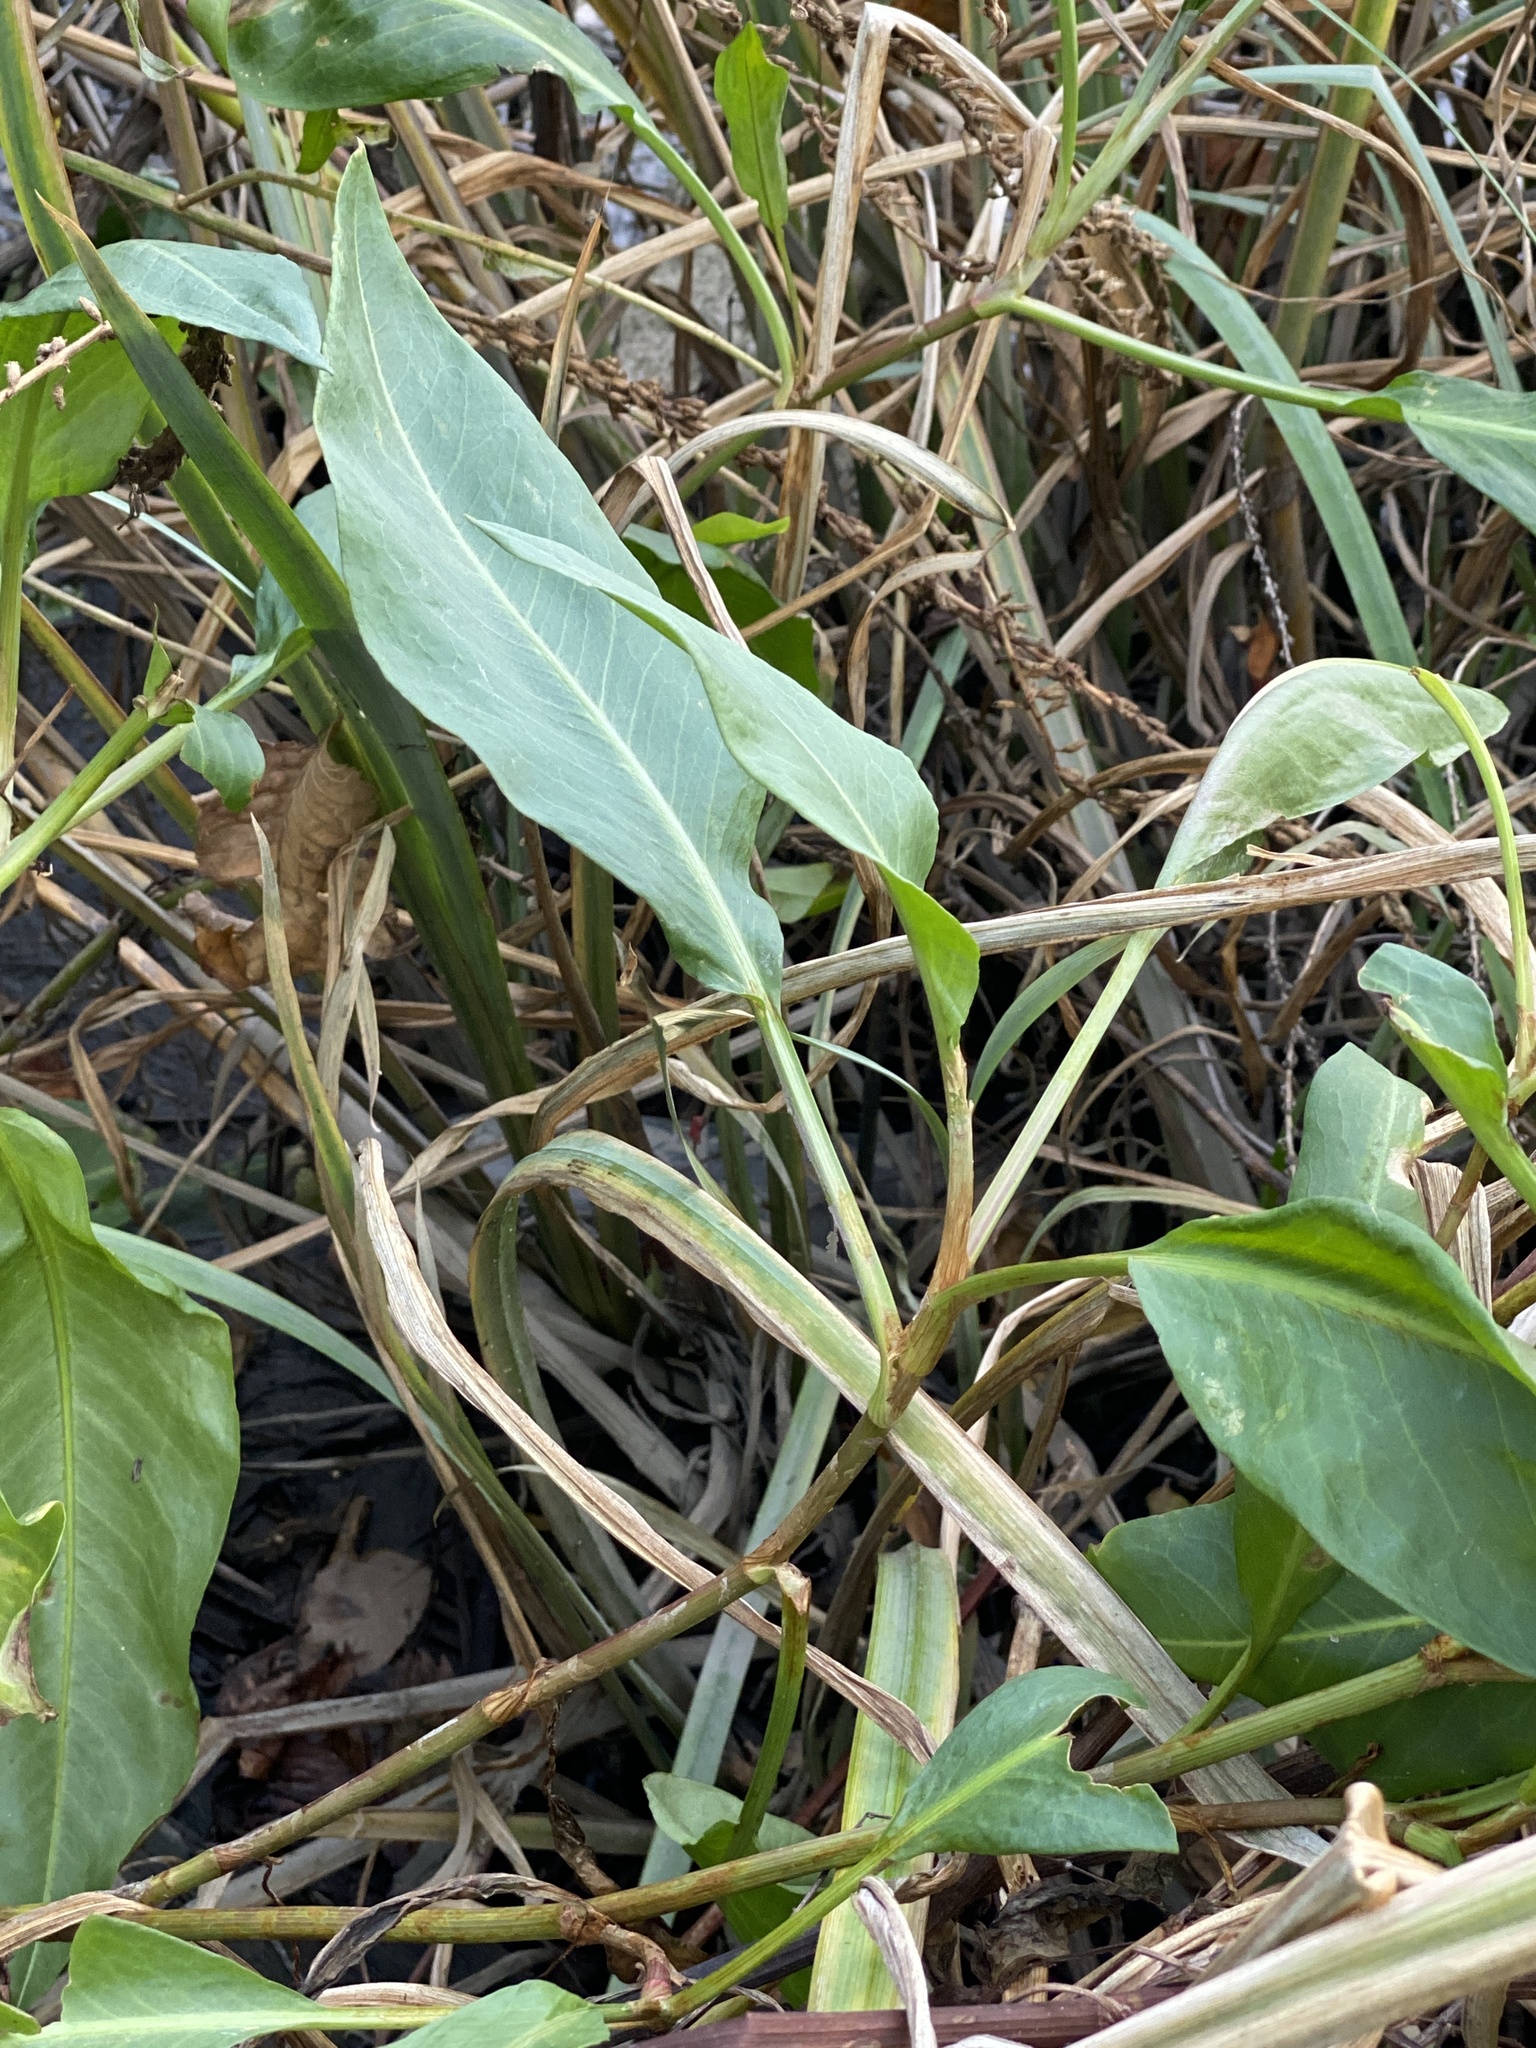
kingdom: Plantae
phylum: Tracheophyta
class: Magnoliopsida
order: Caryophyllales
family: Polygonaceae
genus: Persicaria
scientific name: Persicaria amphibia
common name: Amphibious bistort
